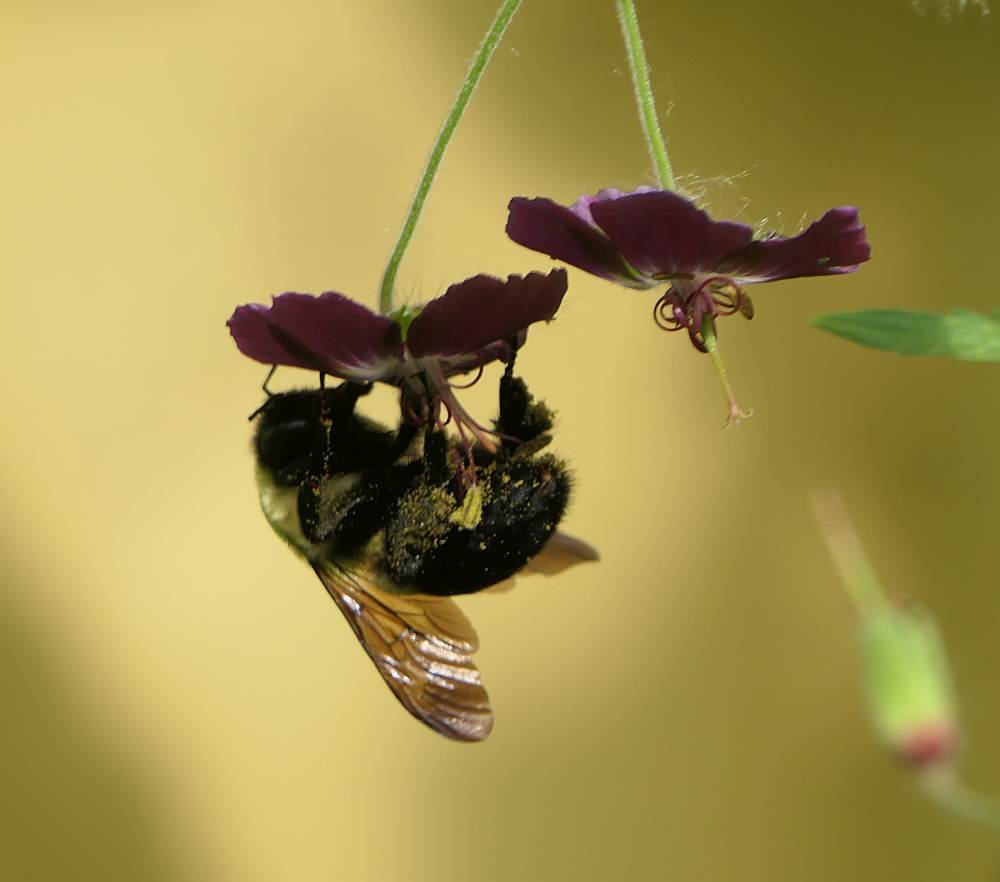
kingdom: Animalia
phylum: Arthropoda
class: Insecta
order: Hymenoptera
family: Apidae
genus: Bombus
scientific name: Bombus
